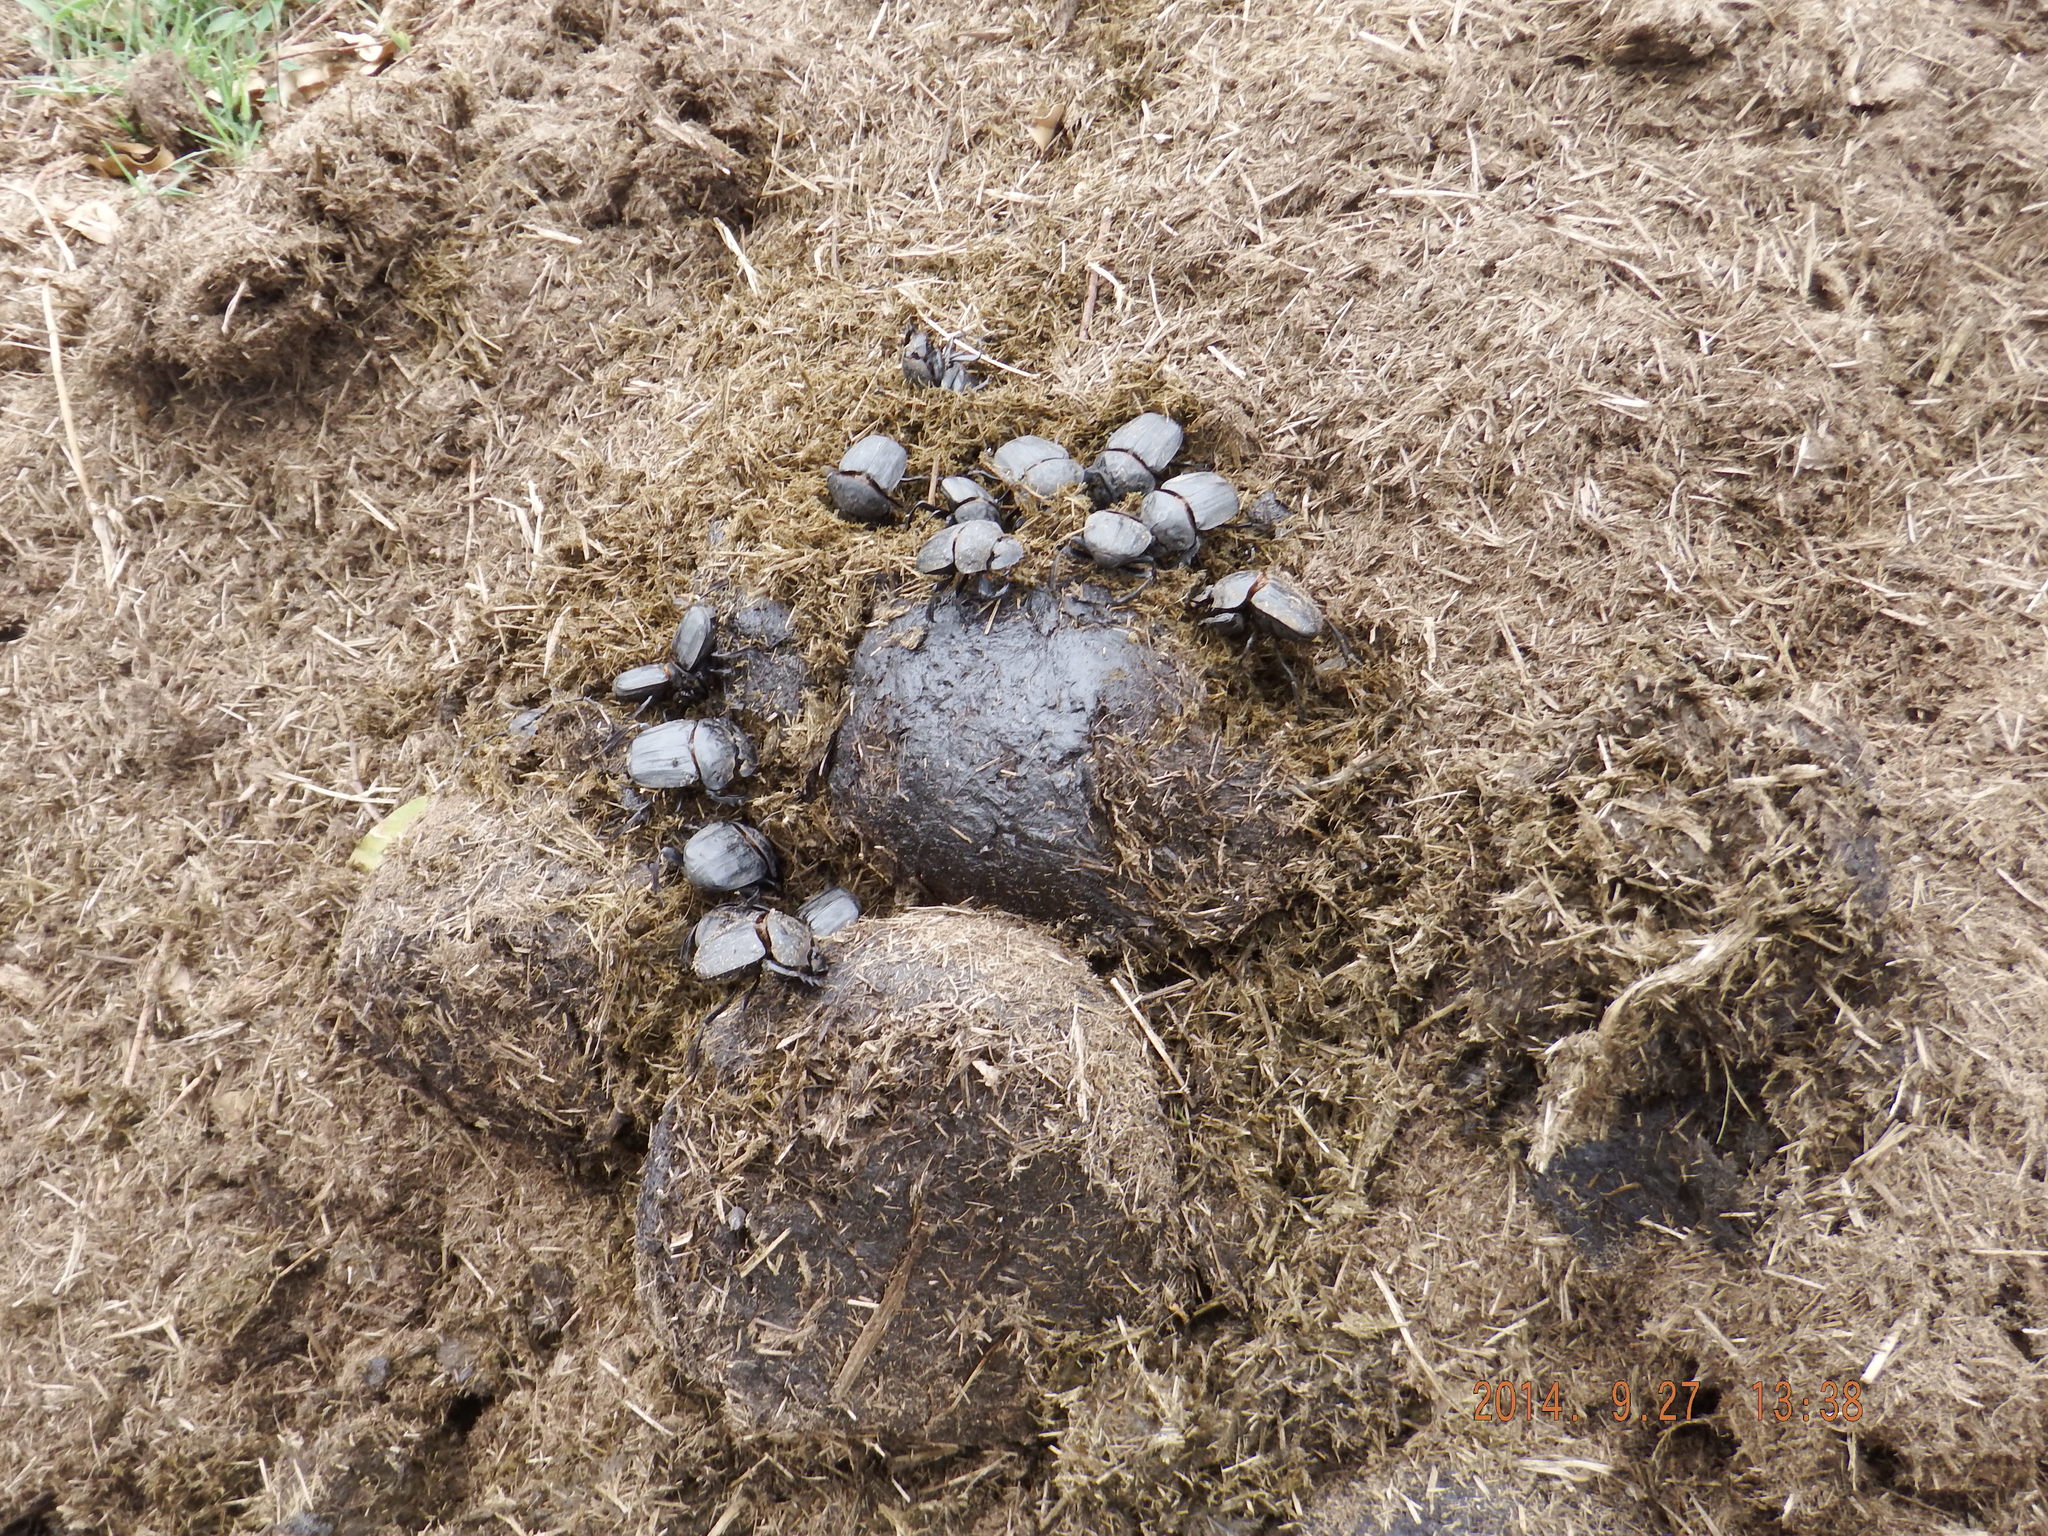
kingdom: Animalia
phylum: Arthropoda
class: Insecta
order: Coleoptera
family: Scarabaeidae
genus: Pachylomera
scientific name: Pachylomera femoralis
